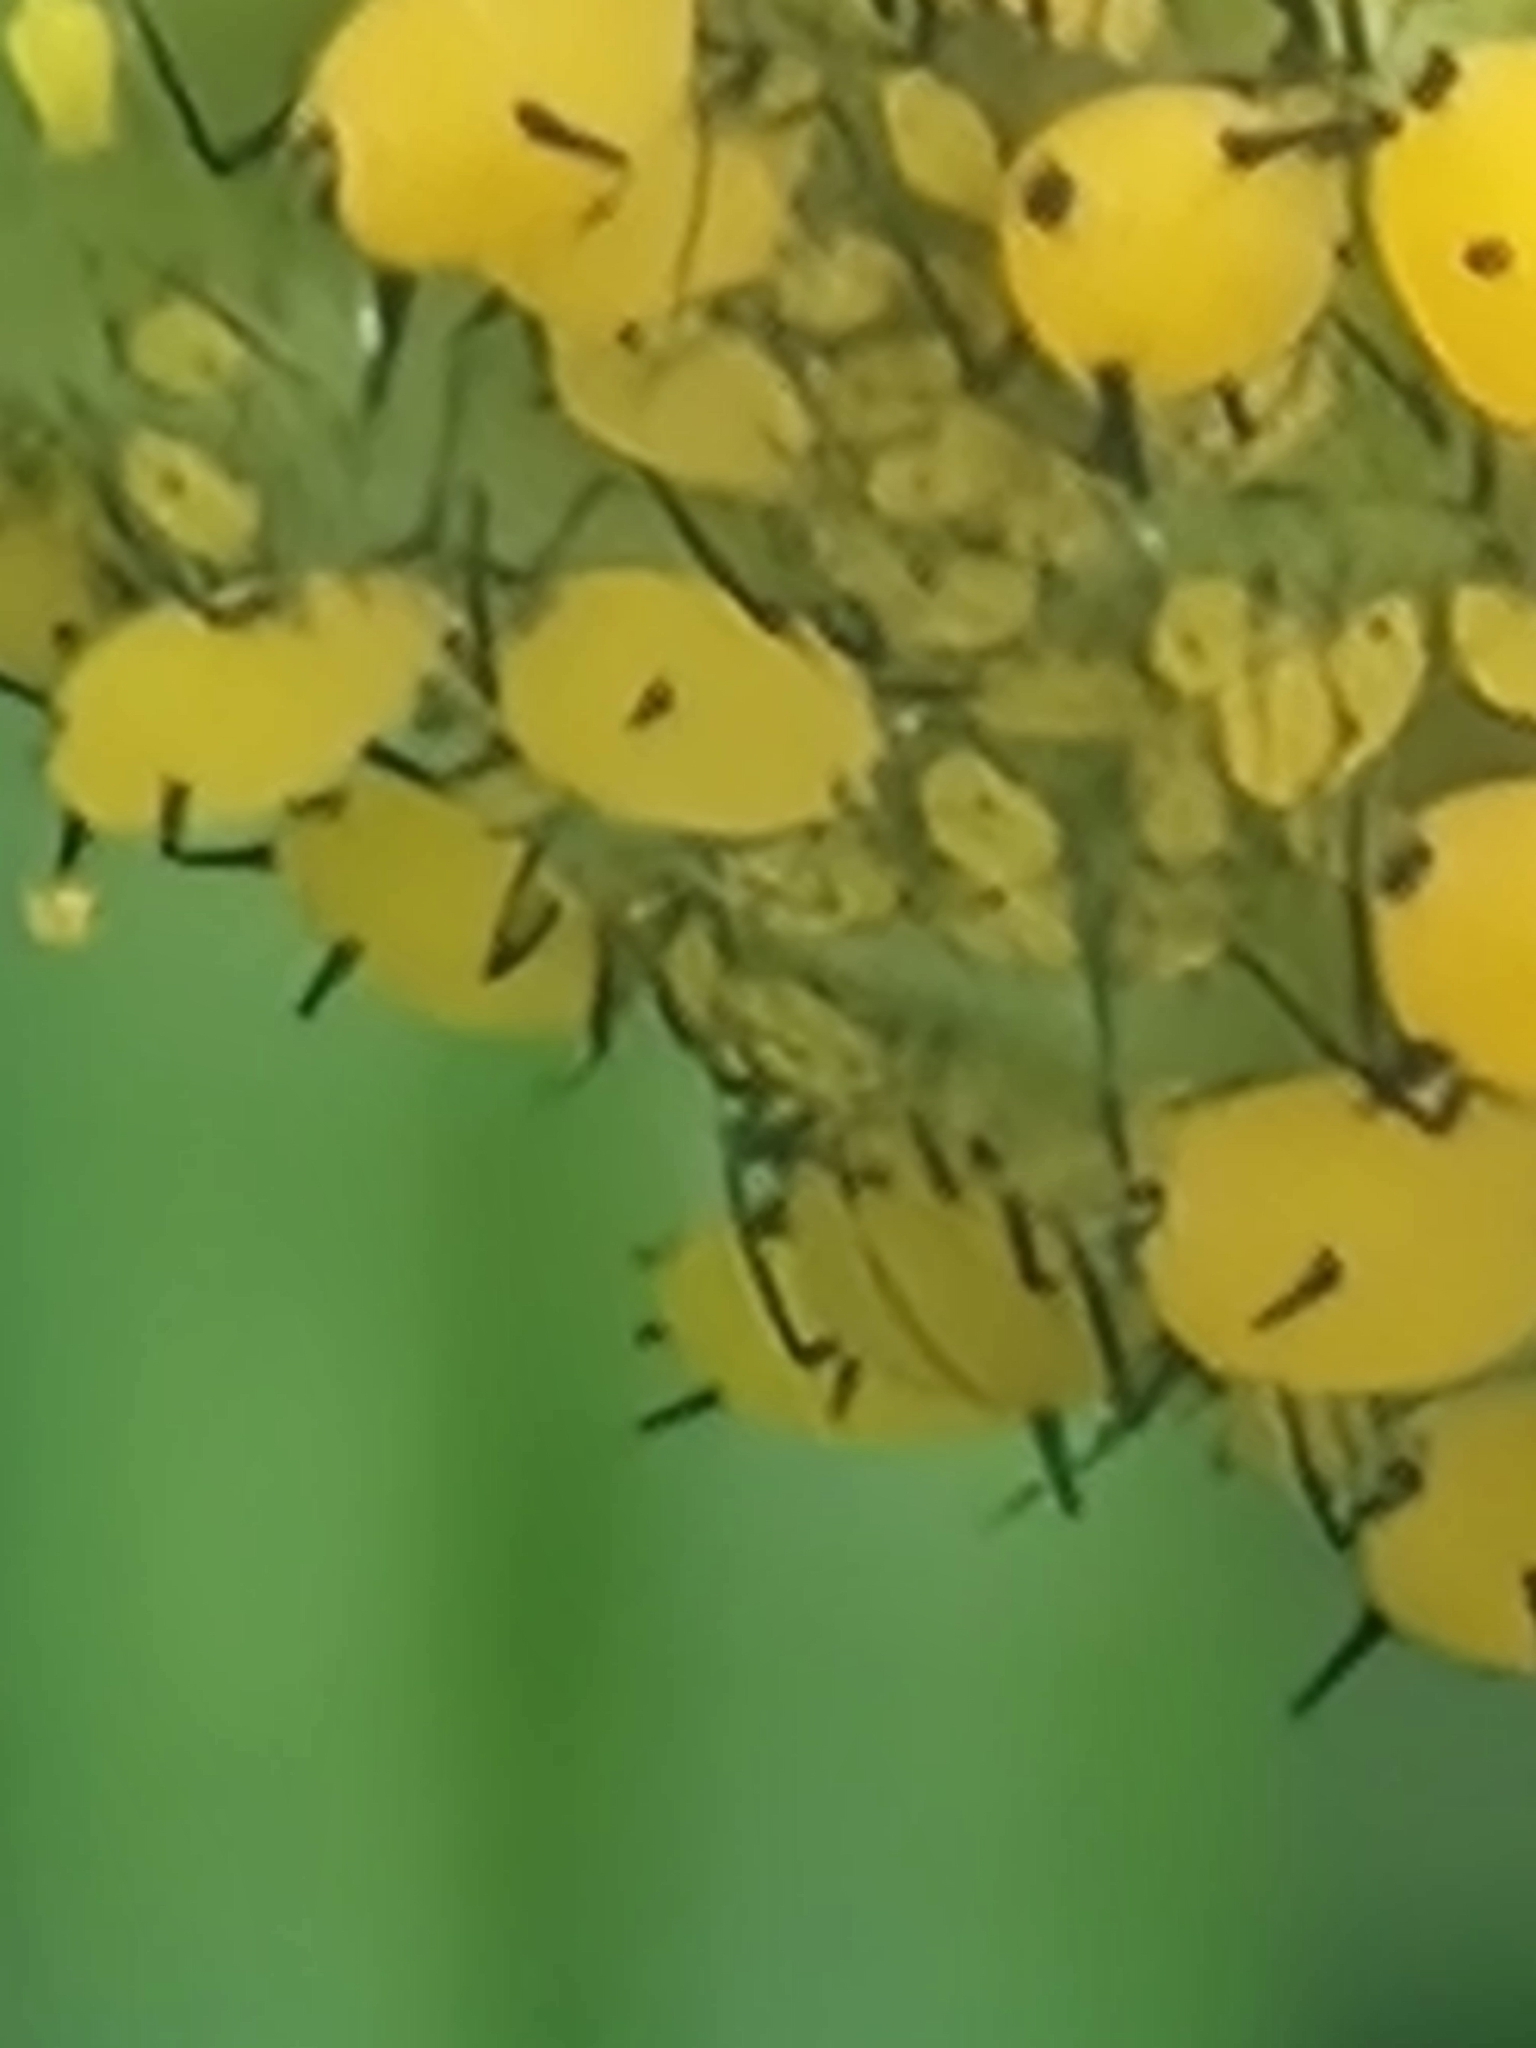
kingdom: Animalia
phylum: Arthropoda
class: Insecta
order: Hemiptera
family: Aphididae
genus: Aphis
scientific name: Aphis nerii
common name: Oleander aphid
